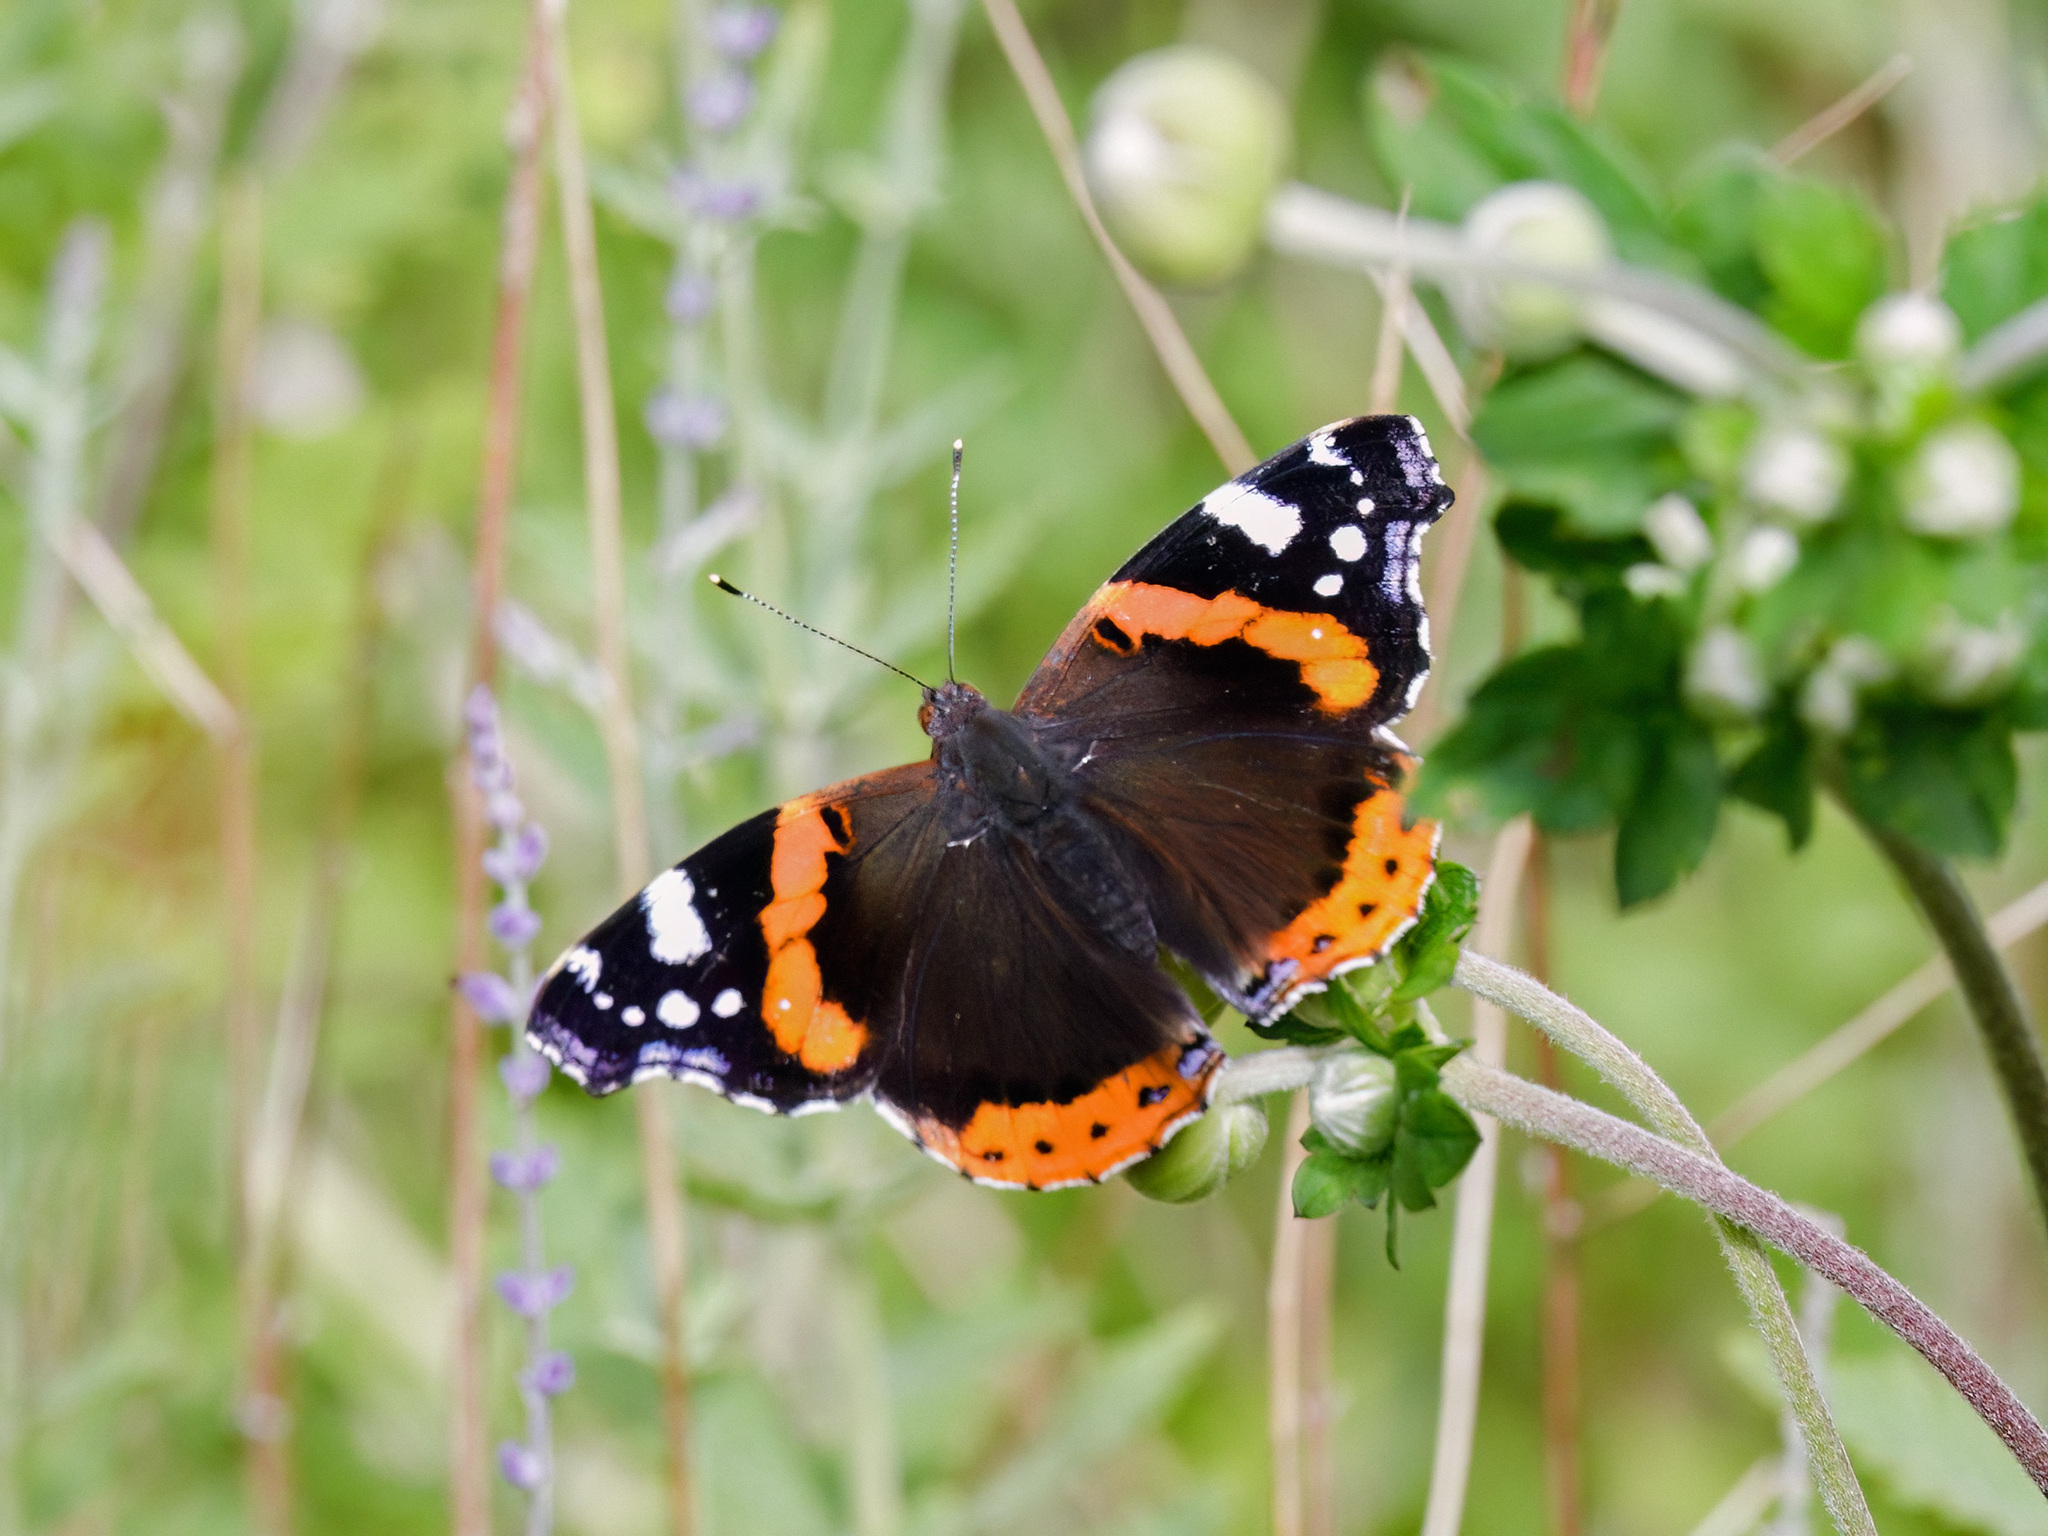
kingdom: Animalia
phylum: Arthropoda
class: Insecta
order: Lepidoptera
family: Nymphalidae
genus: Vanessa
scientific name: Vanessa atalanta
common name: Red admiral
